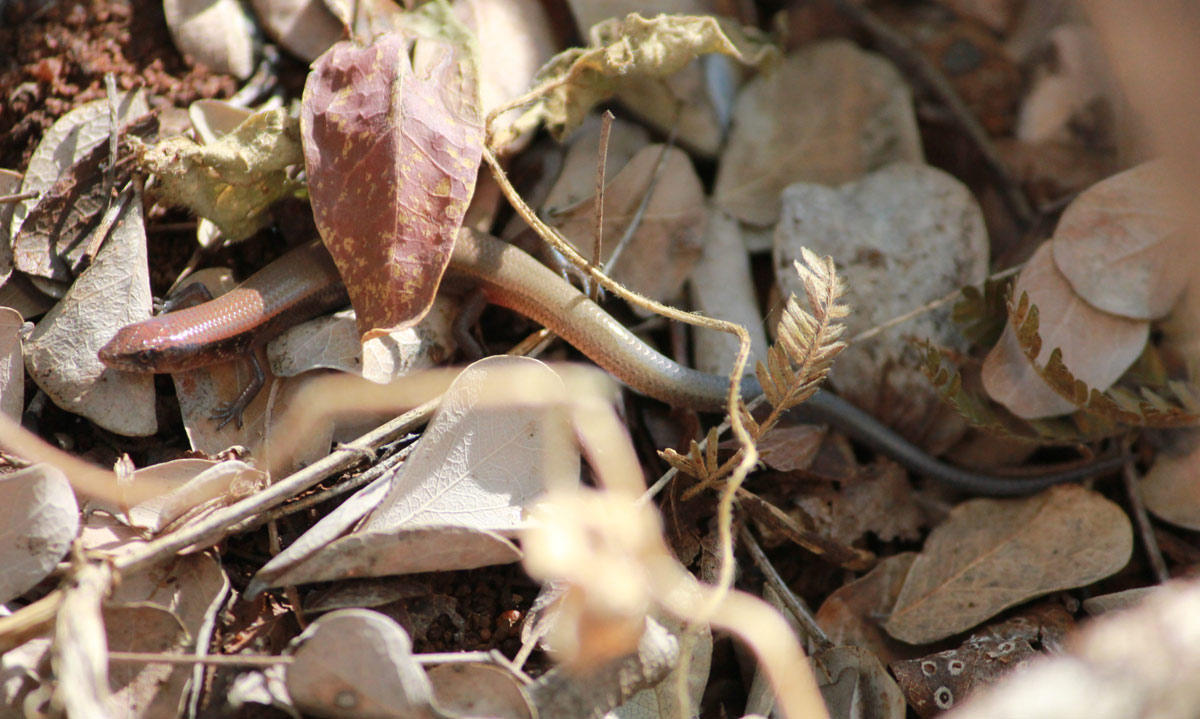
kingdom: Animalia
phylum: Chordata
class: Squamata
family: Scincidae
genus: Panaspis
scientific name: Panaspis maculicollis
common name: Spotted-neck snake-eyed skink
